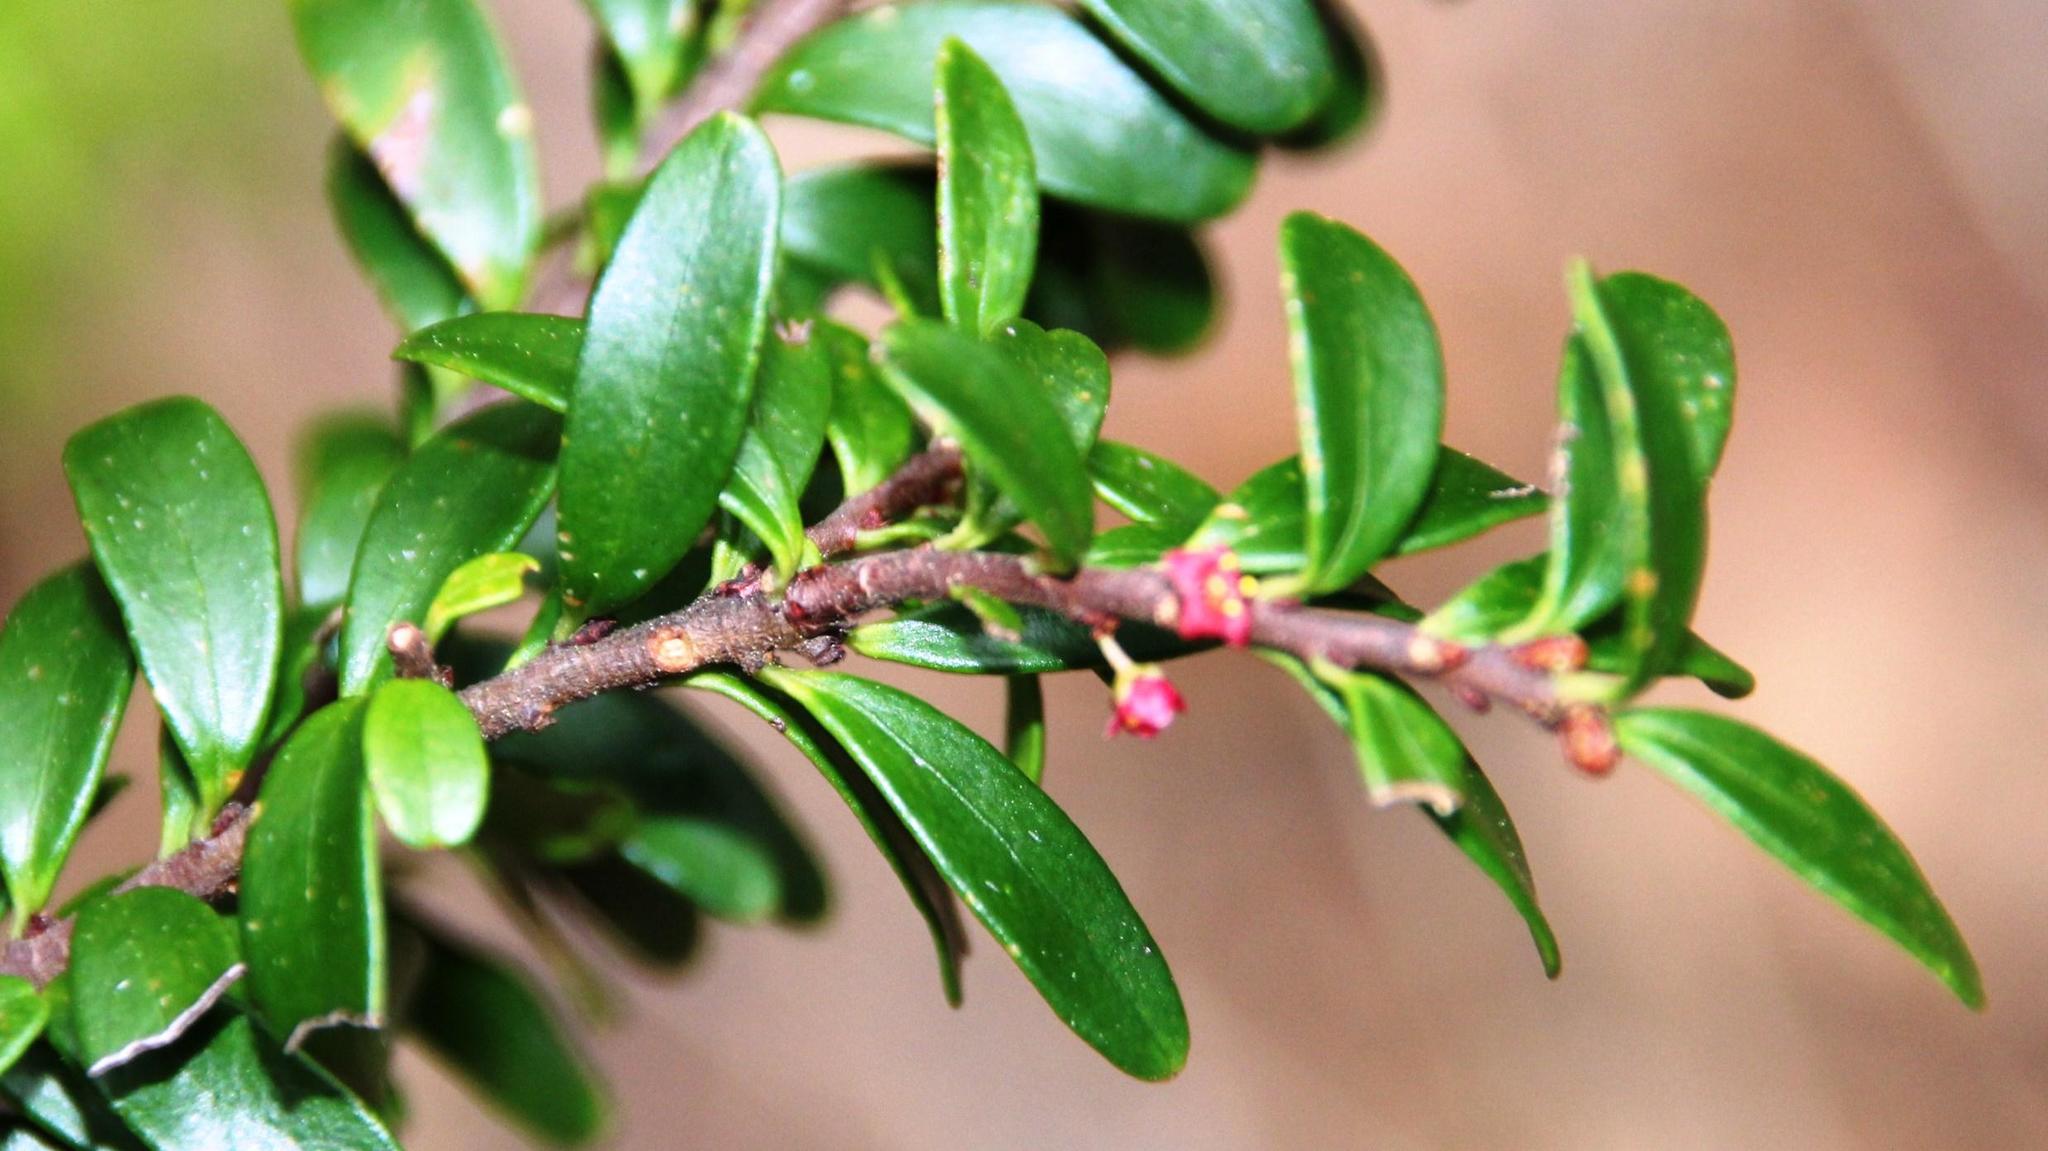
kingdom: Plantae
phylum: Tracheophyta
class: Magnoliopsida
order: Celastrales
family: Celastraceae
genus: Maytenus
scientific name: Maytenus disticha
